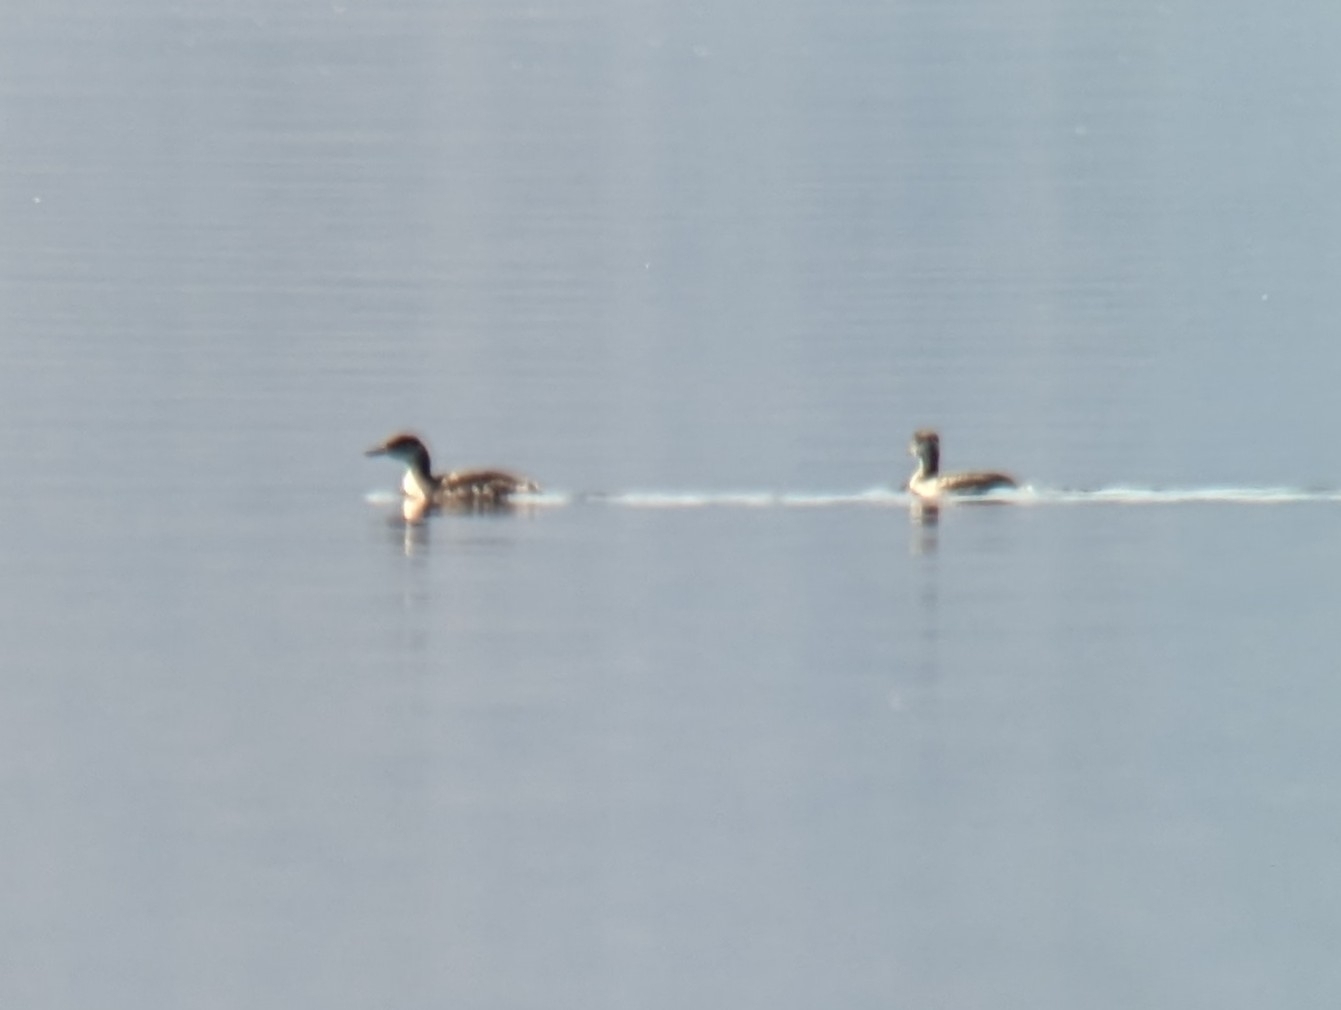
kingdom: Animalia
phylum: Chordata
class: Aves
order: Podicipediformes
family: Podicipedidae
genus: Podiceps
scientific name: Podiceps grisegena
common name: Red-necked grebe
